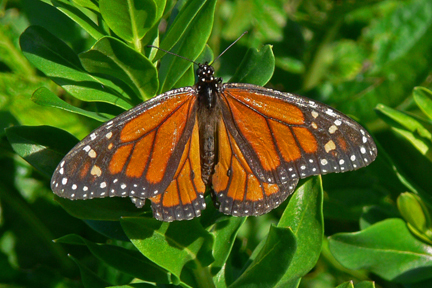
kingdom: Animalia
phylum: Arthropoda
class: Insecta
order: Lepidoptera
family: Nymphalidae
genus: Danaus
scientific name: Danaus plexippus
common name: Monarch
